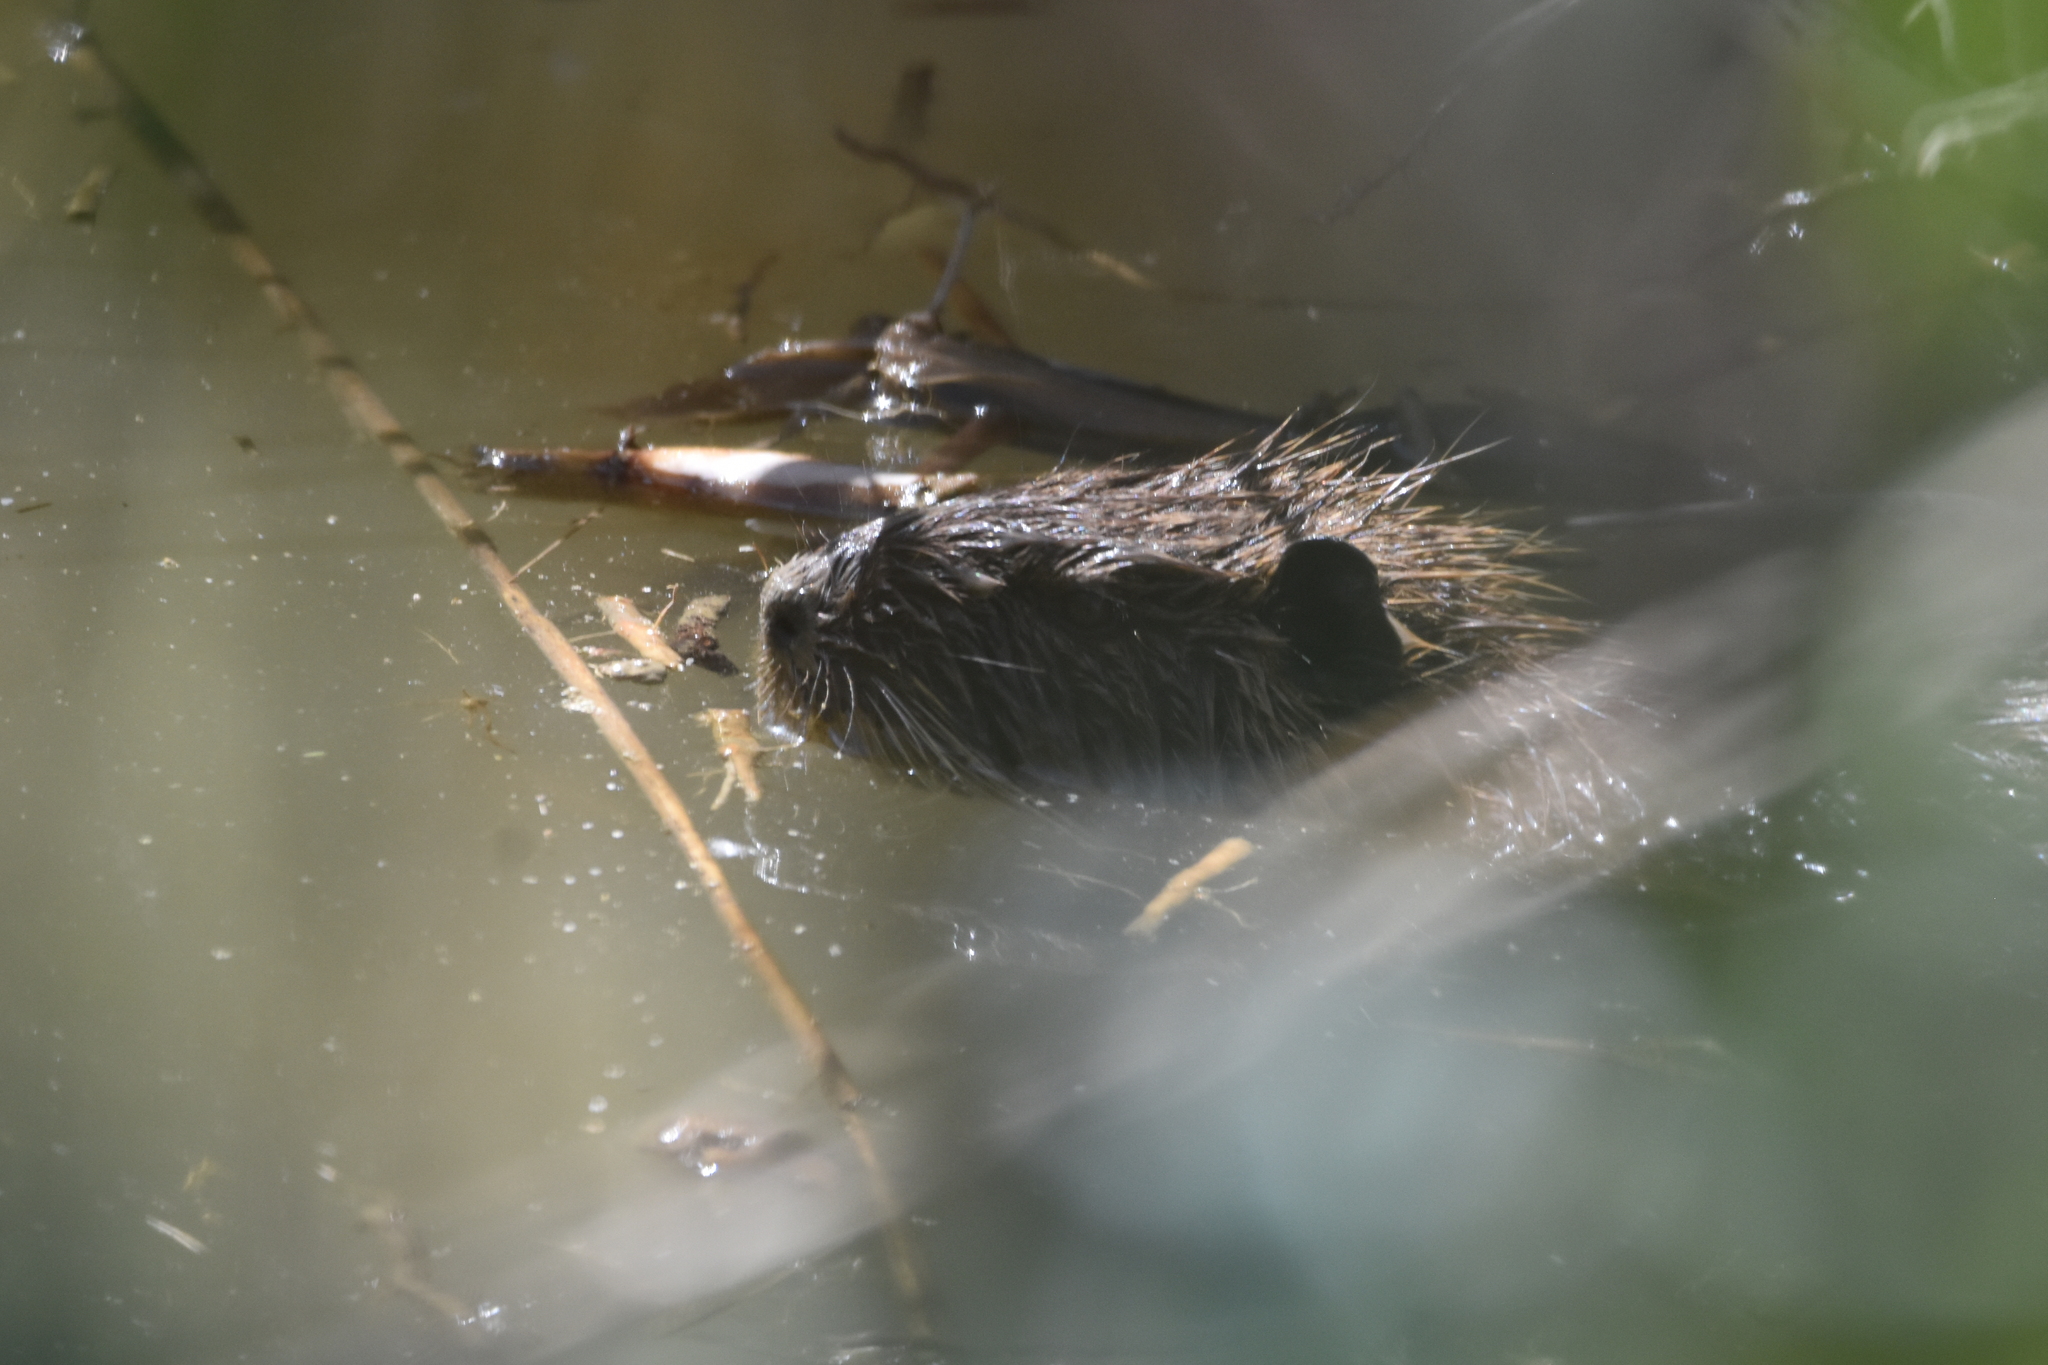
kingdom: Animalia
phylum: Chordata
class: Mammalia
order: Rodentia
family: Myocastoridae
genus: Myocastor
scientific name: Myocastor coypus
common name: Coypu
